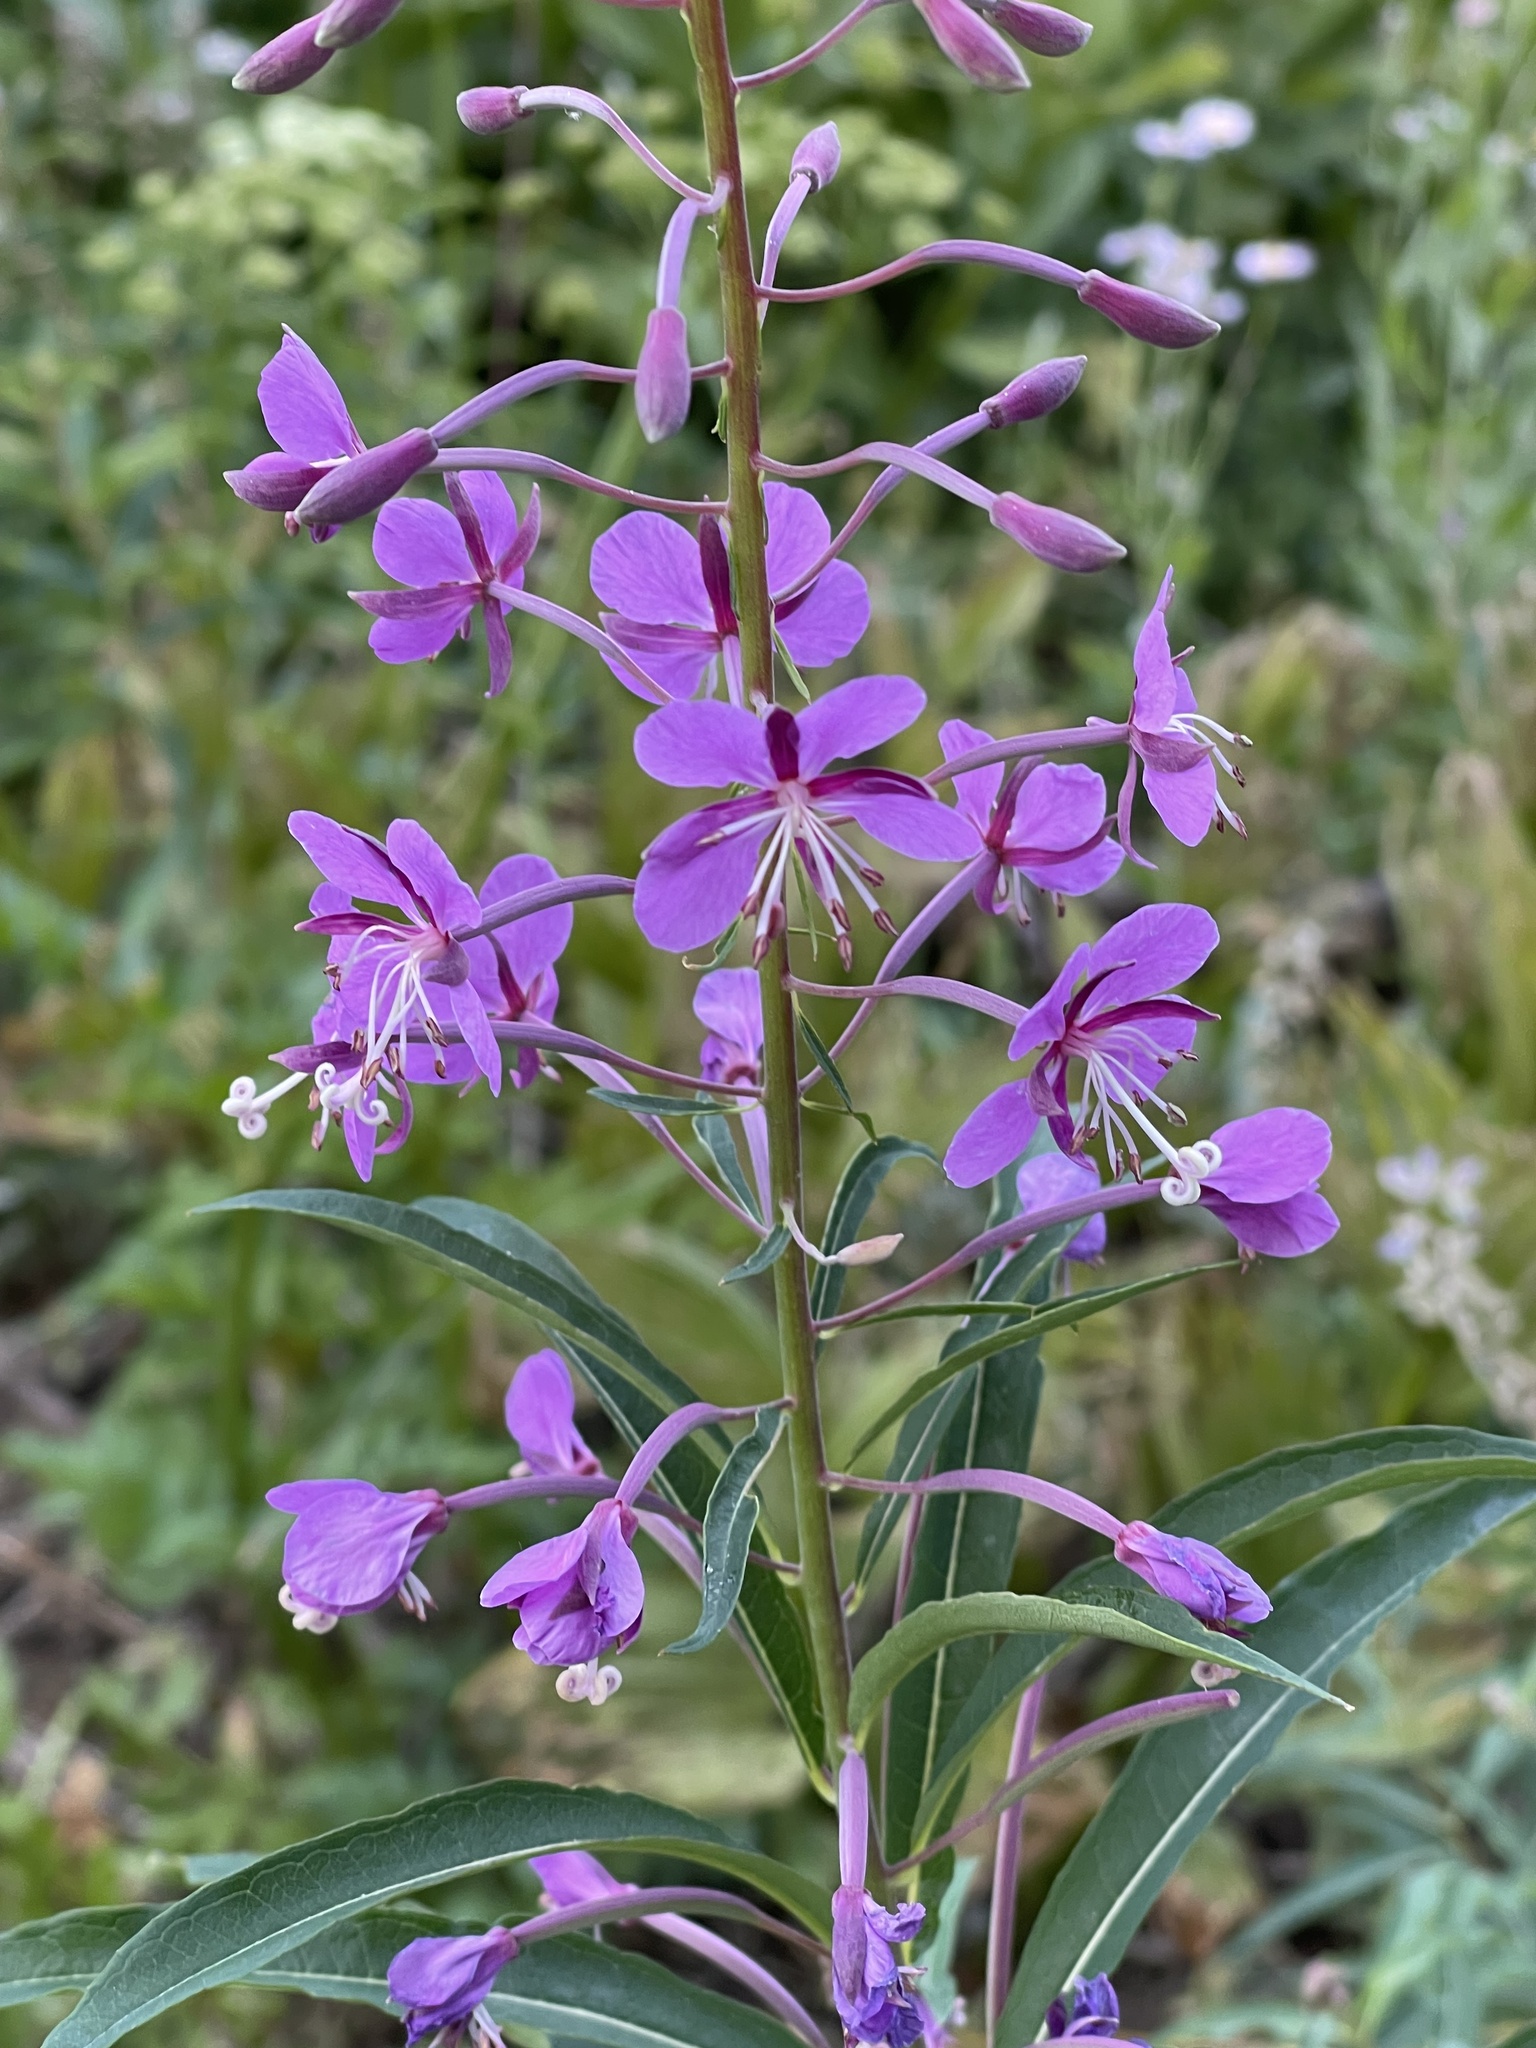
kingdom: Plantae
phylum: Tracheophyta
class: Magnoliopsida
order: Myrtales
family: Onagraceae
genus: Chamaenerion
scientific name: Chamaenerion angustifolium
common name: Fireweed
